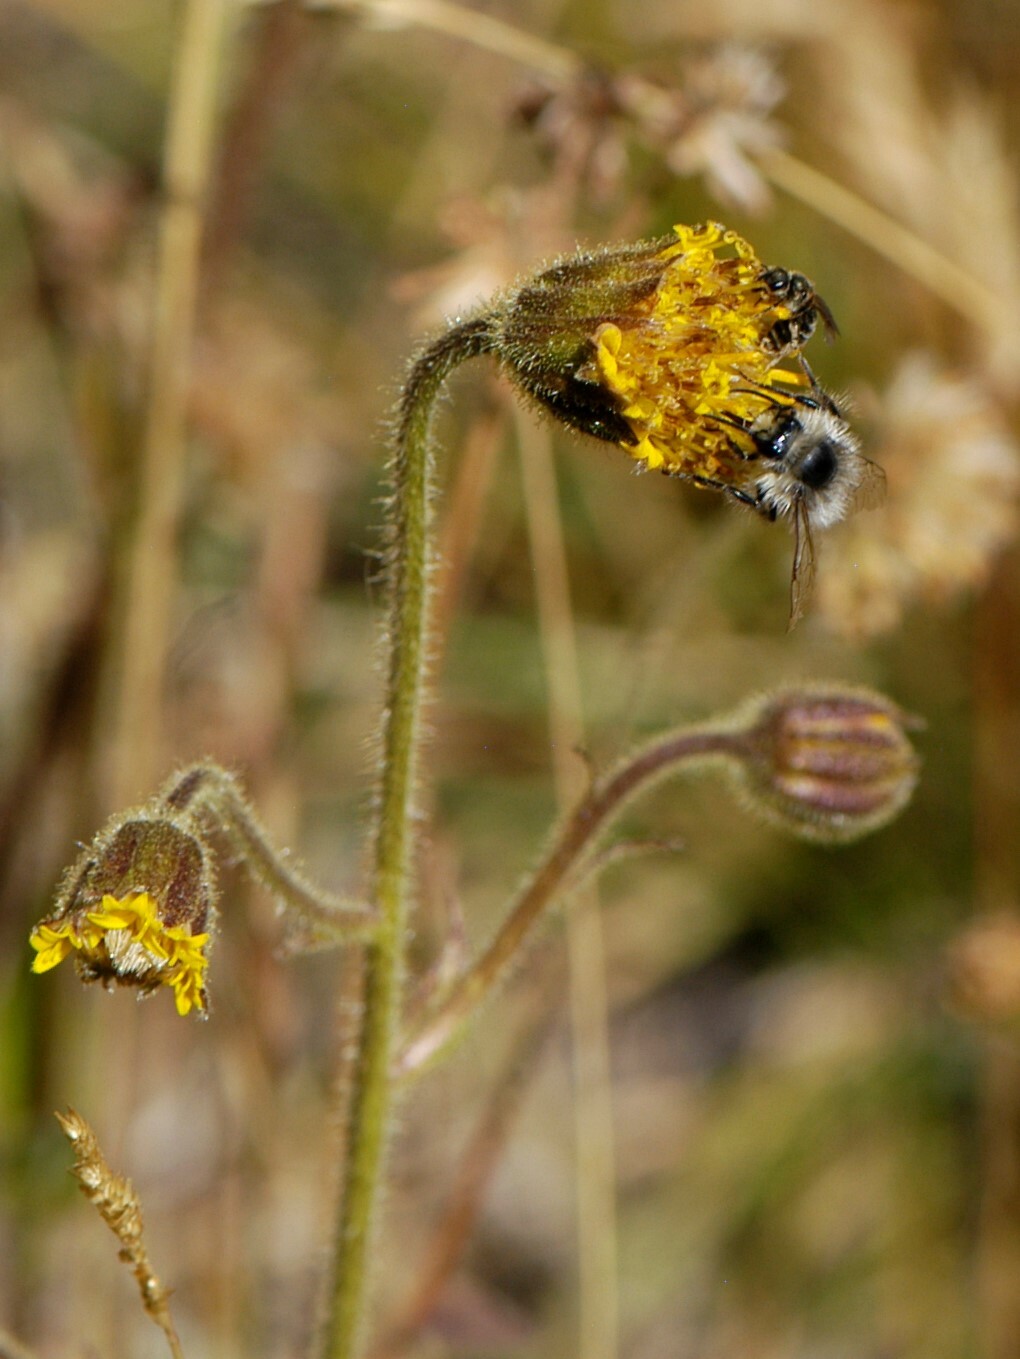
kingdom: Plantae
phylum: Tracheophyta
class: Magnoliopsida
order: Asterales
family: Asteraceae
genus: Arnica
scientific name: Arnica parryi
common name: Parry's arnica
